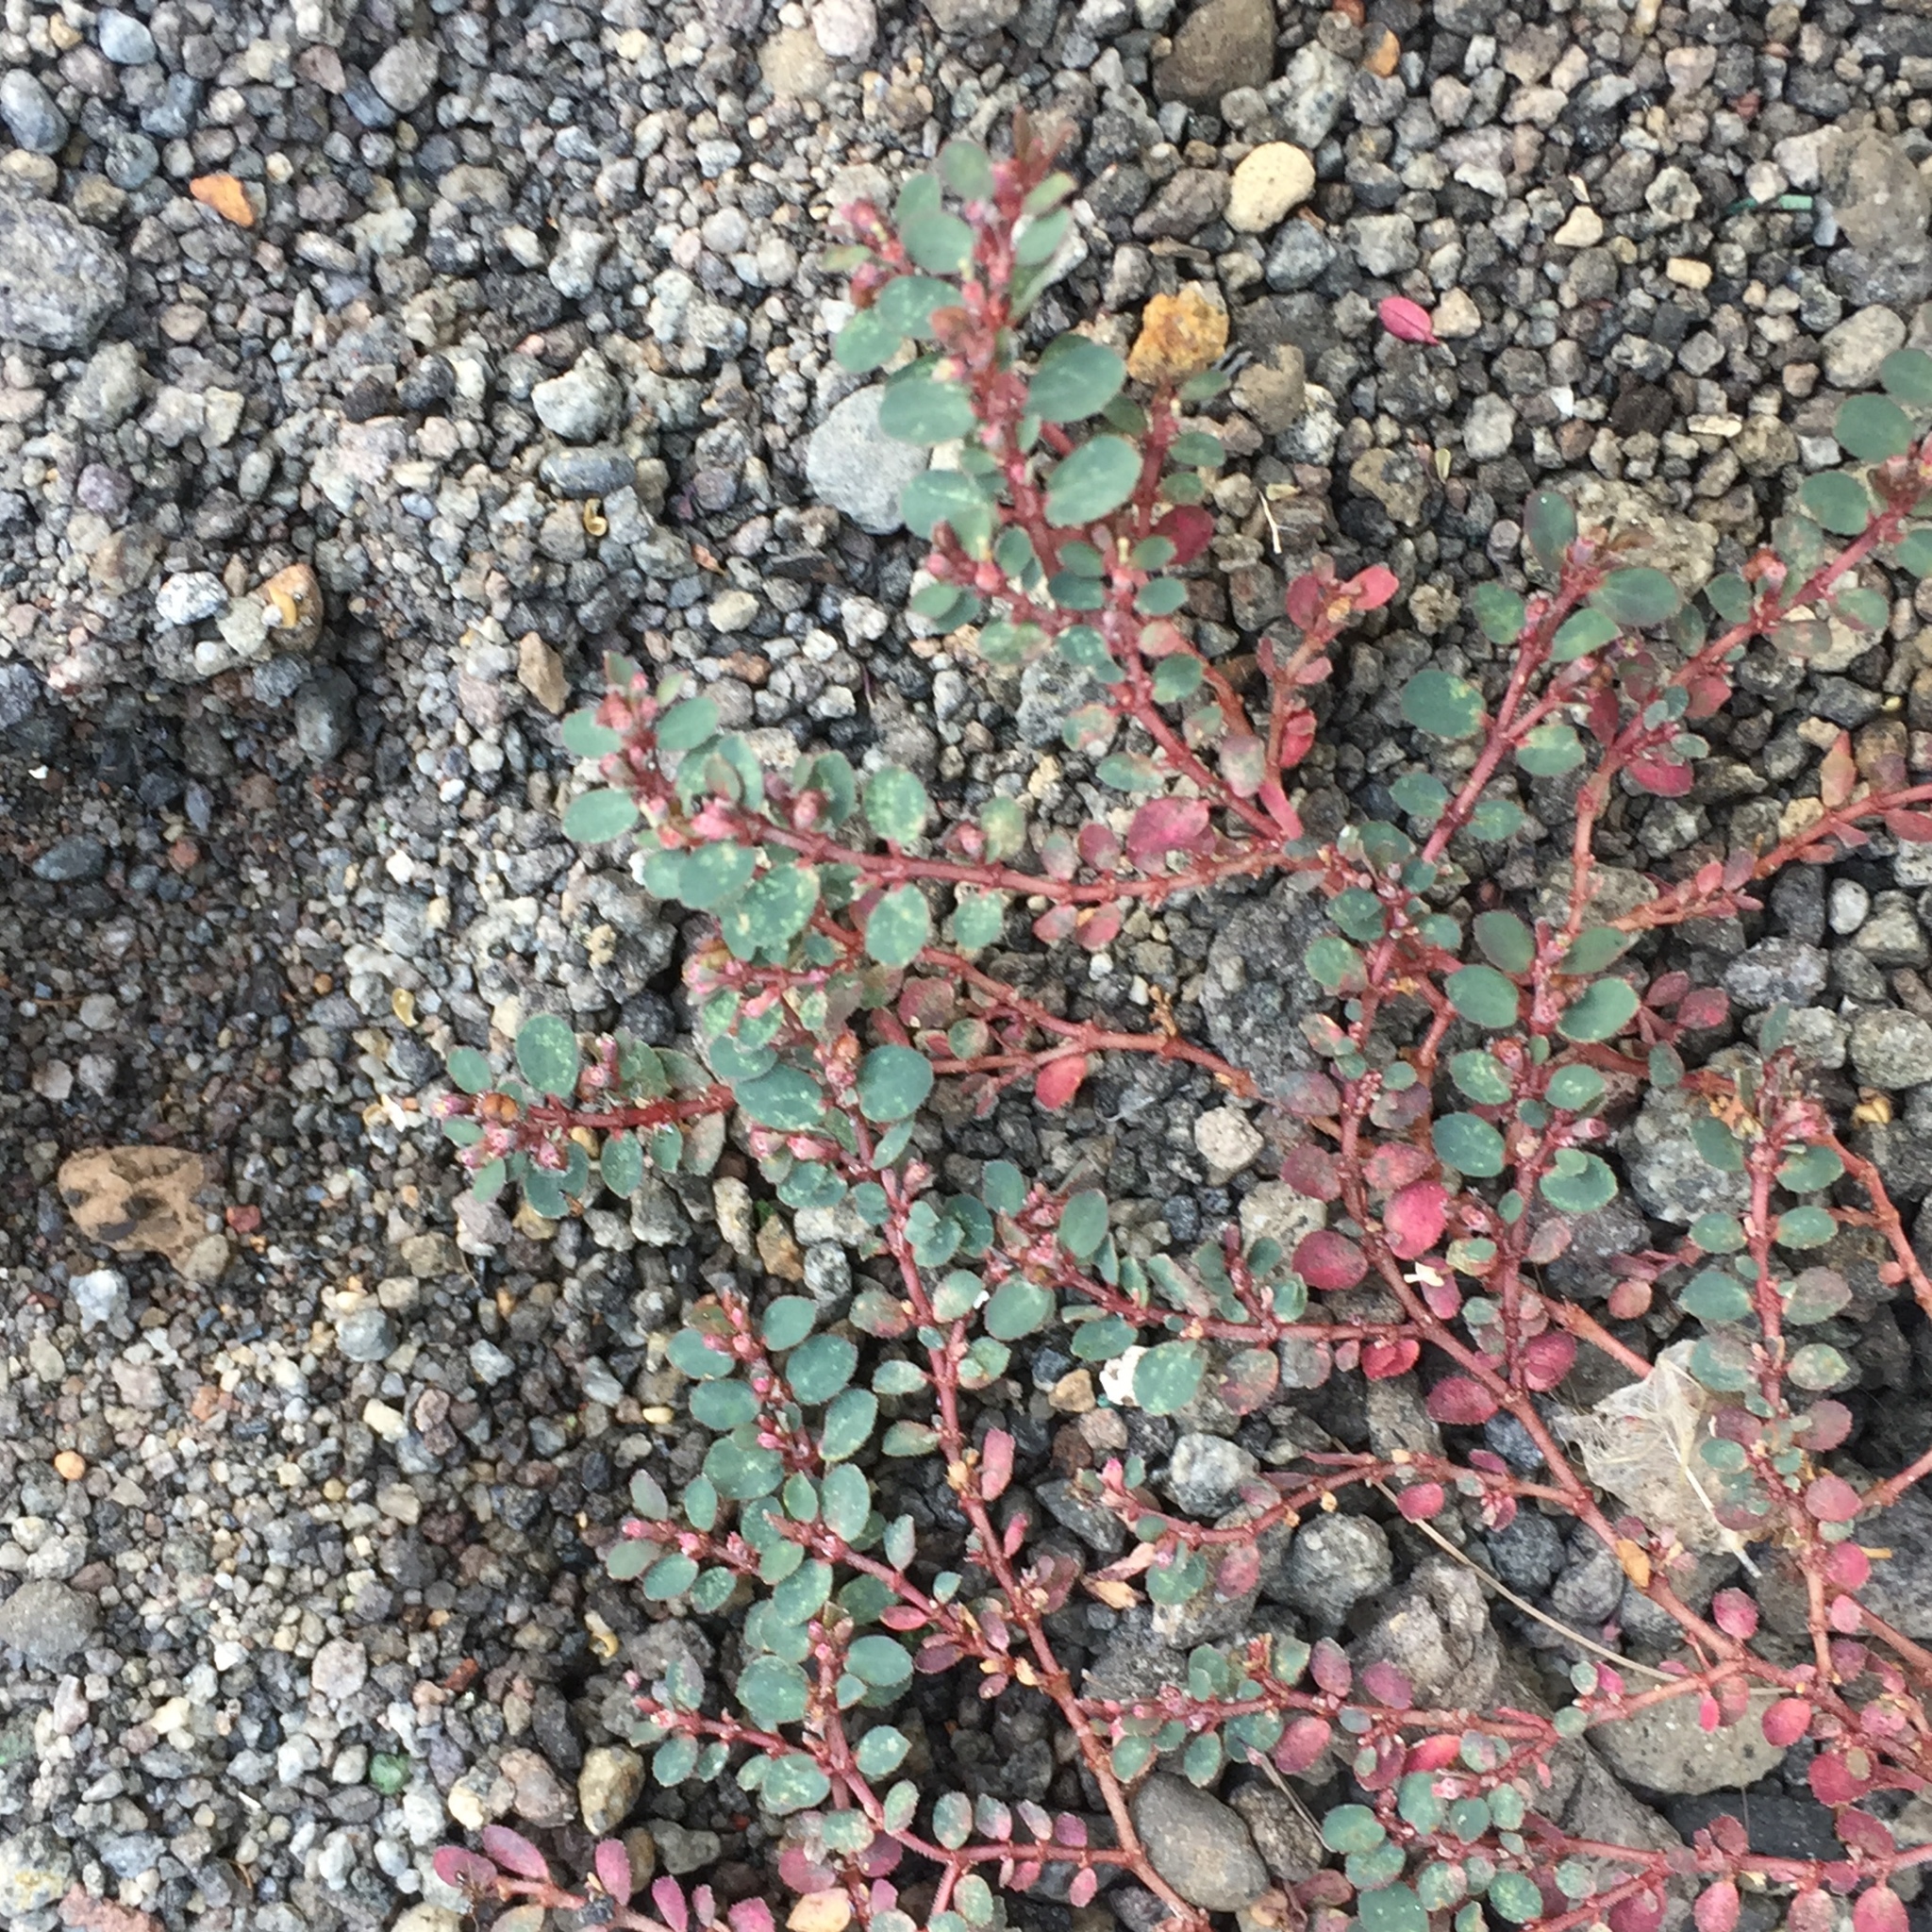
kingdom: Plantae
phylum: Tracheophyta
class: Magnoliopsida
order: Malpighiales
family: Euphorbiaceae
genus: Euphorbia
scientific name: Euphorbia prostrata
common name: Prostrate sandmat
